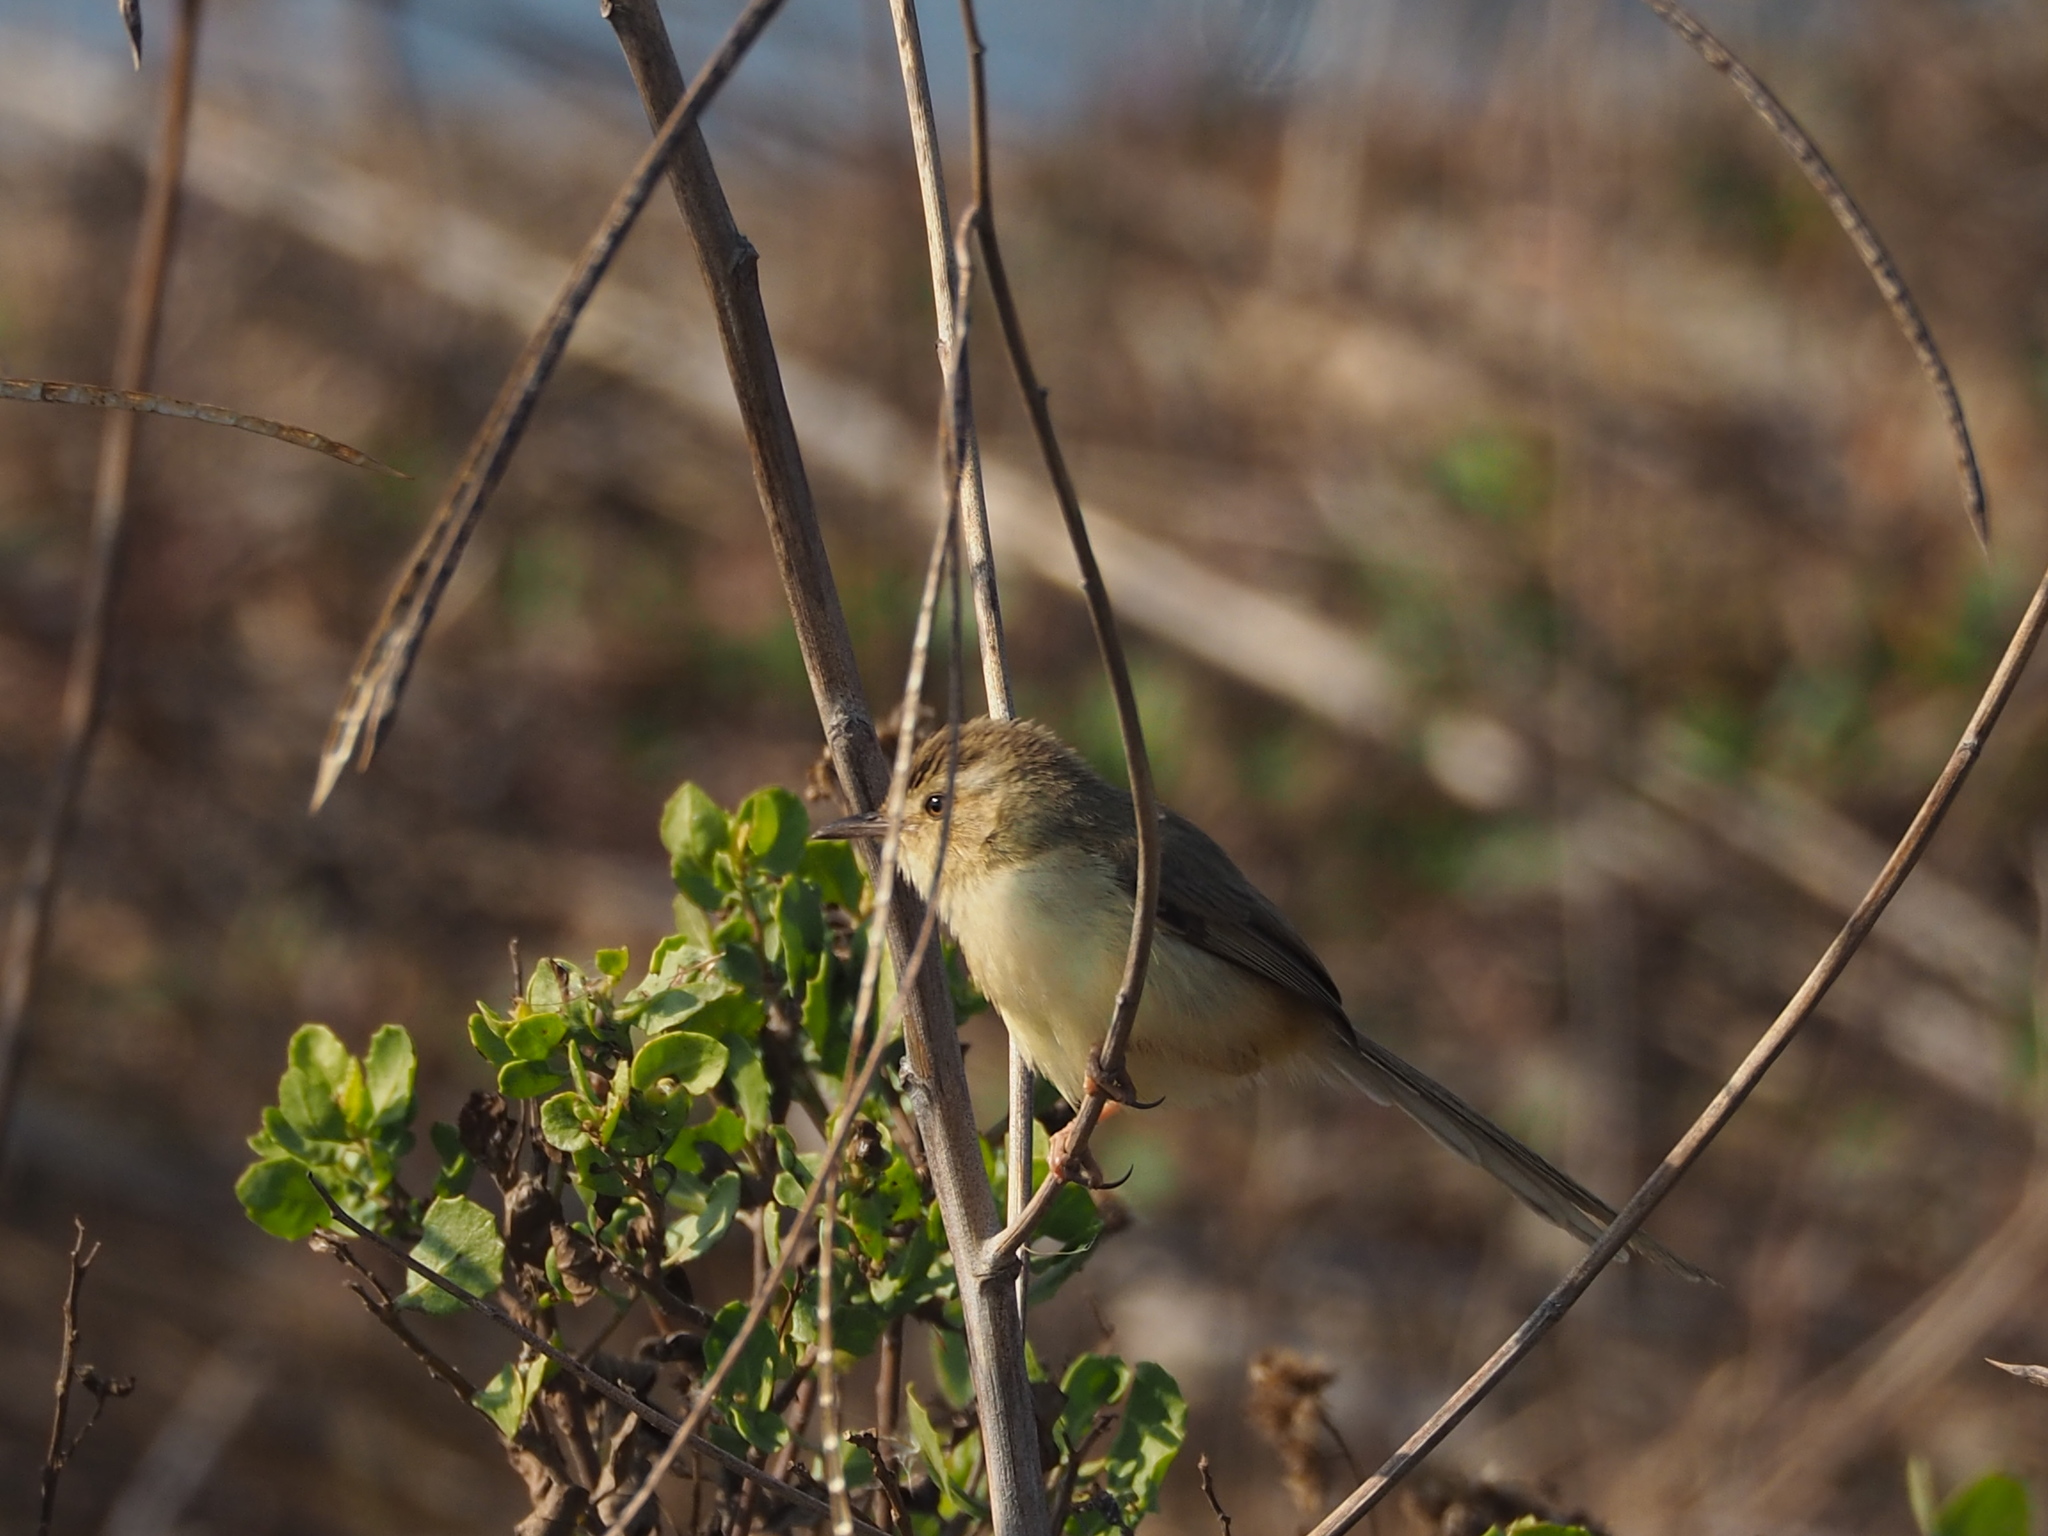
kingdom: Animalia
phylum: Chordata
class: Aves
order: Passeriformes
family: Cisticolidae
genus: Prinia
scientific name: Prinia inornata
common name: Plain prinia
